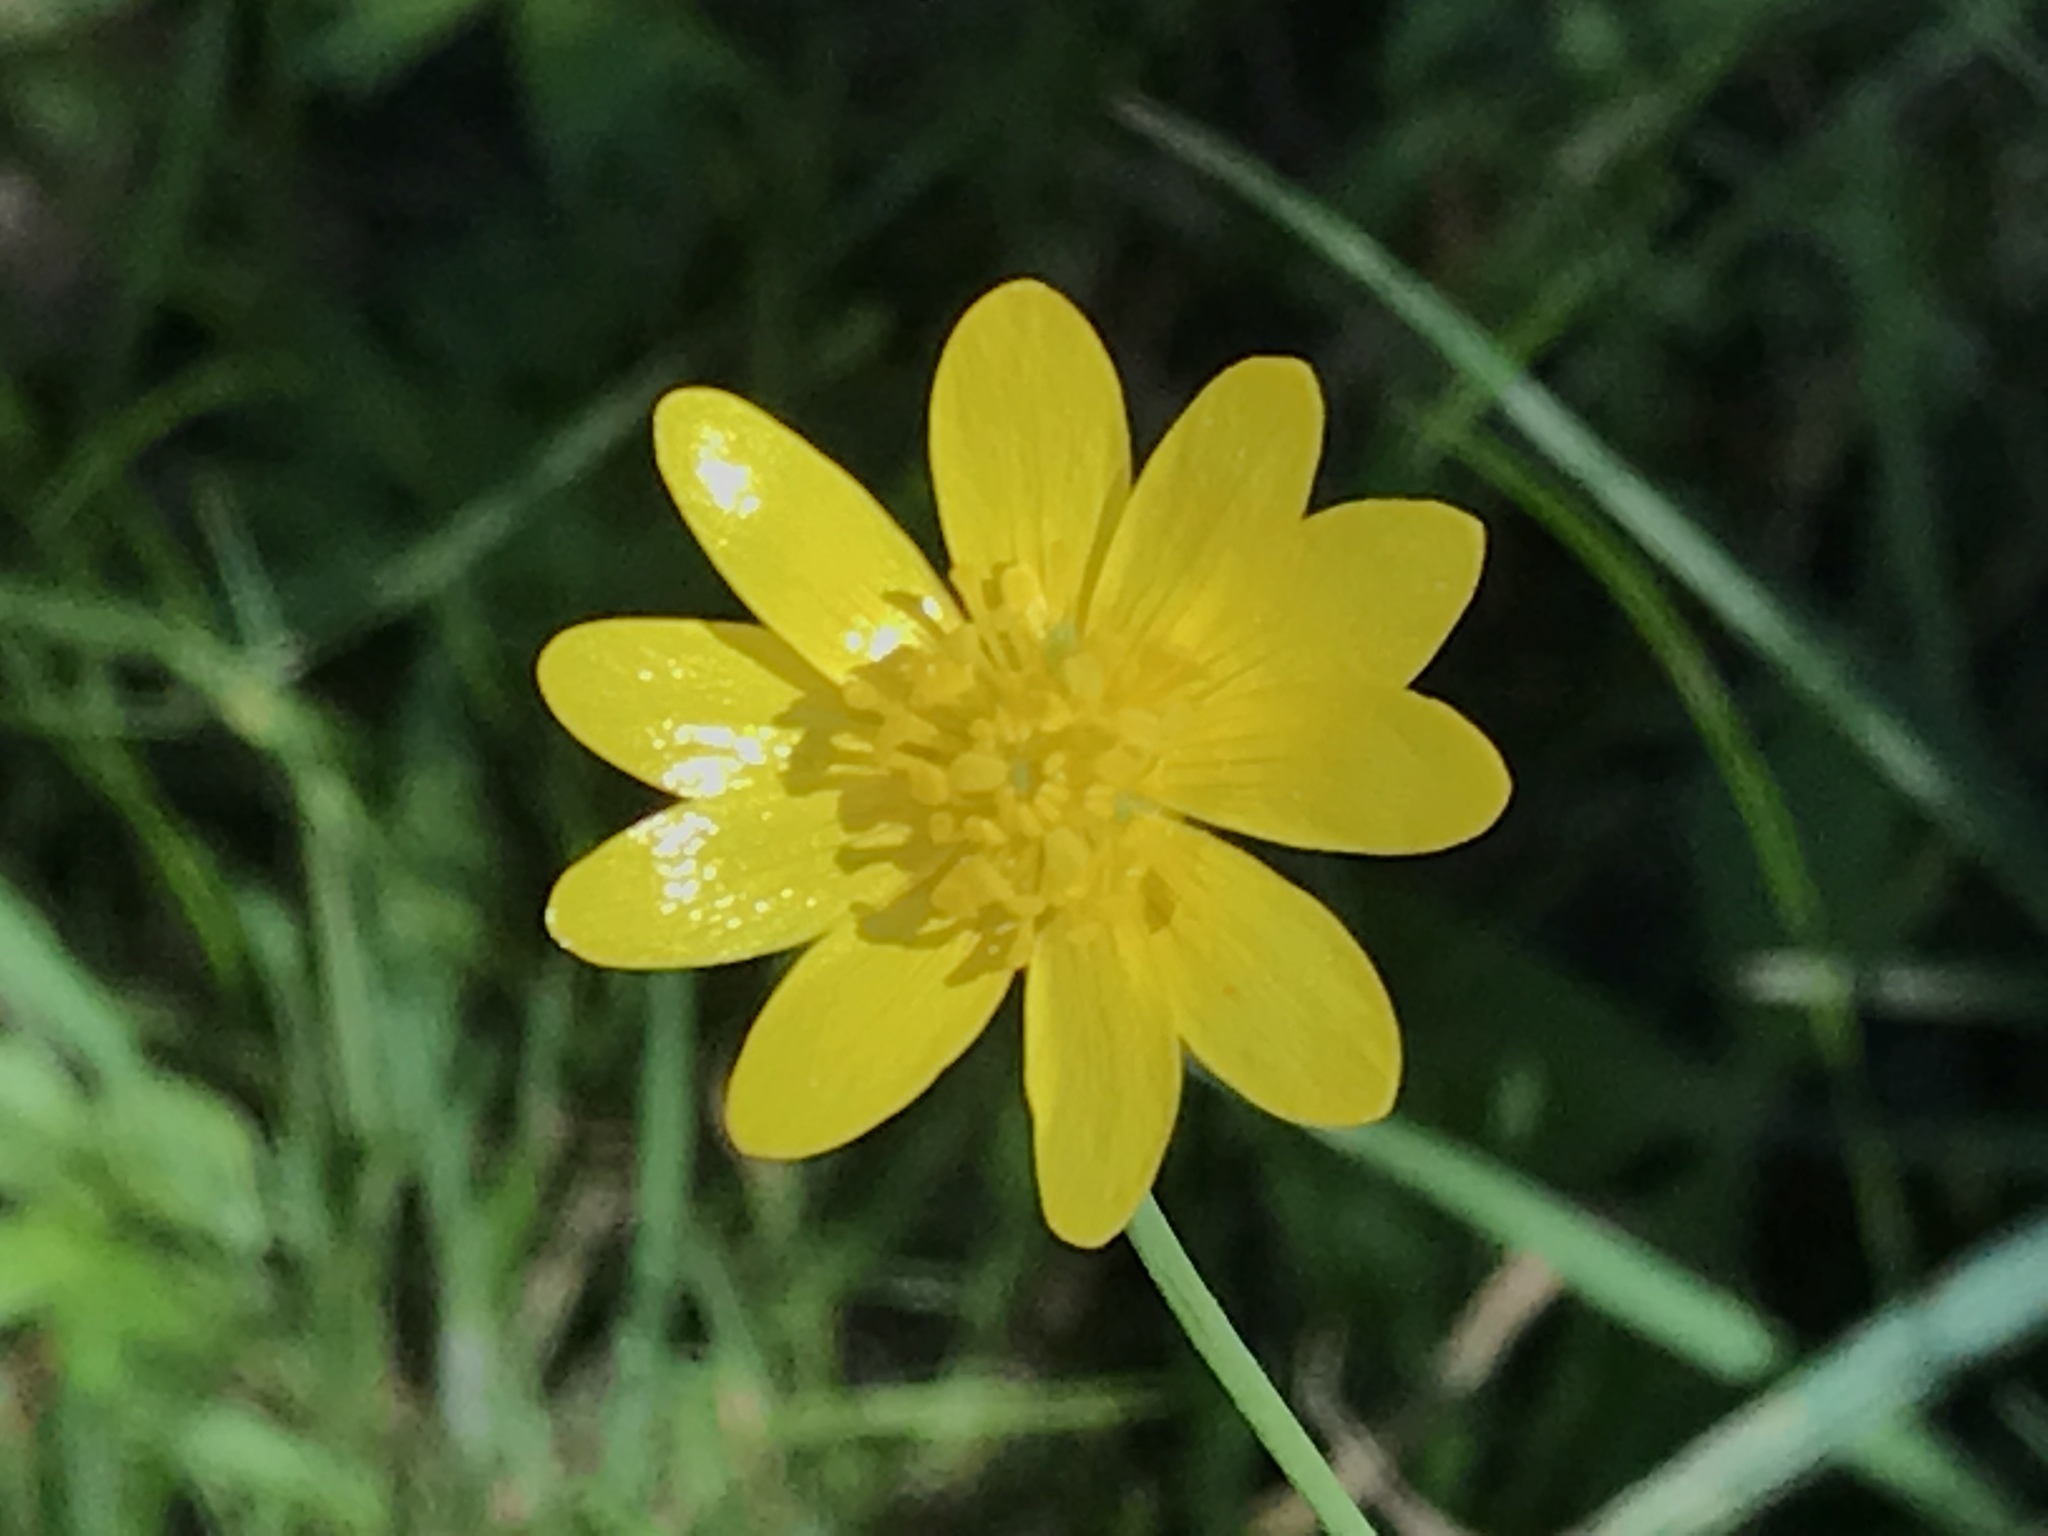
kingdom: Plantae
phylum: Tracheophyta
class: Magnoliopsida
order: Ranunculales
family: Ranunculaceae
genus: Ranunculus
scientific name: Ranunculus californicus
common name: California buttercup
